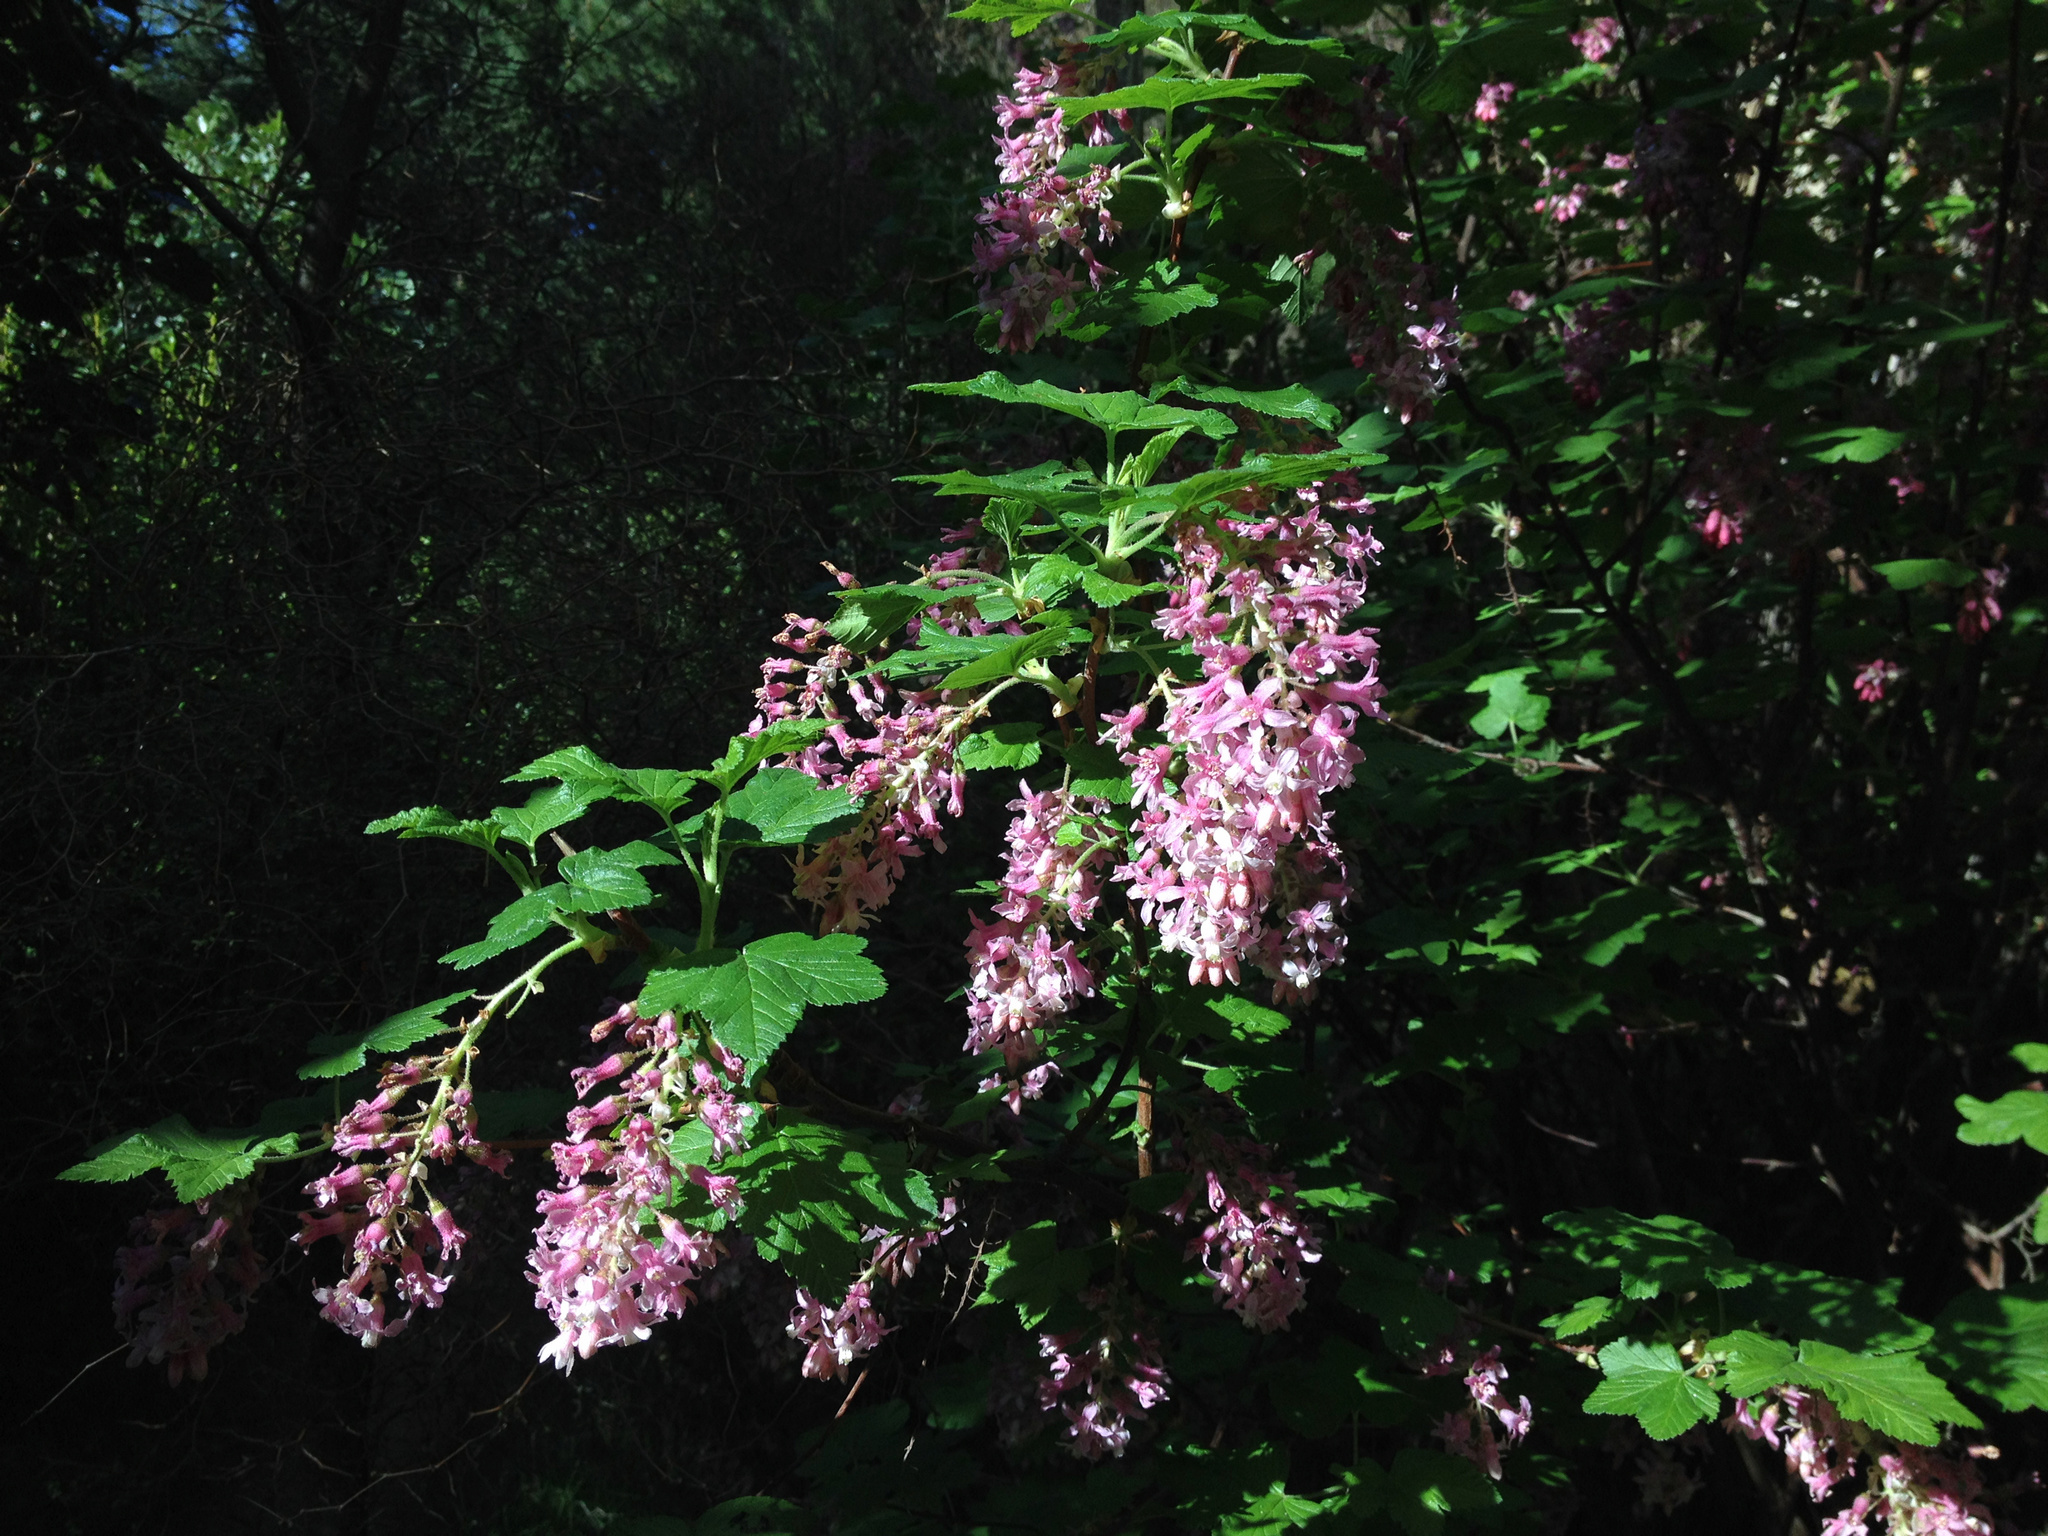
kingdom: Plantae
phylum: Tracheophyta
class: Magnoliopsida
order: Saxifragales
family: Grossulariaceae
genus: Ribes
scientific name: Ribes sanguineum
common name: Flowering currant
